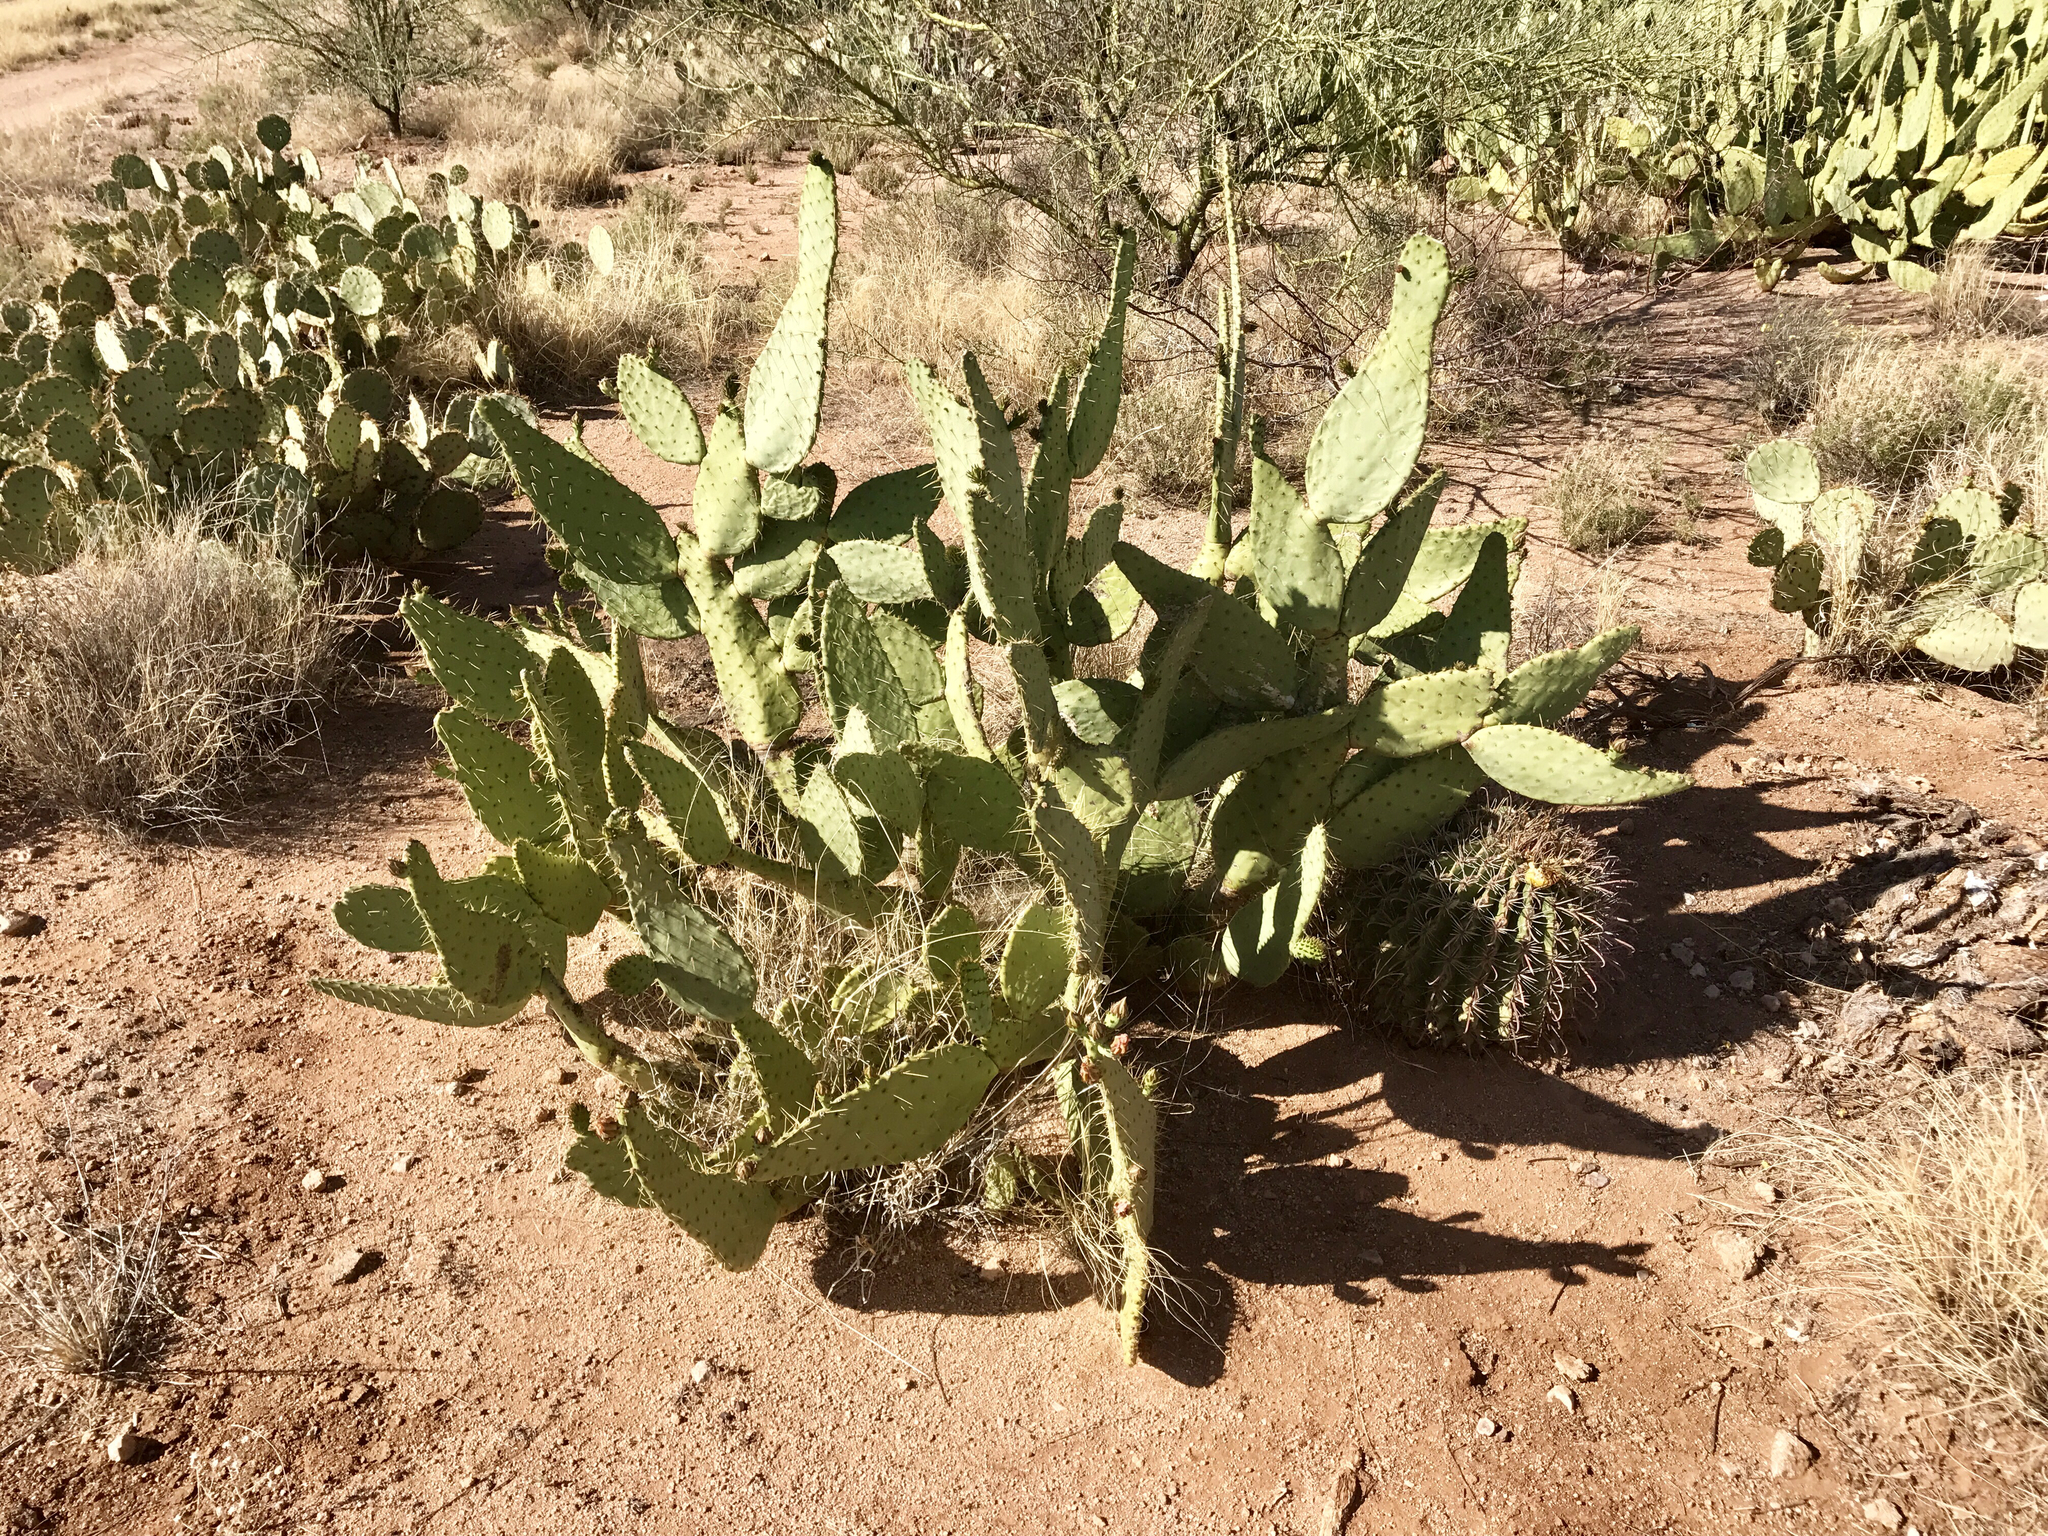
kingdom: Plantae
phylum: Tracheophyta
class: Magnoliopsida
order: Caryophyllales
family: Cactaceae
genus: Opuntia
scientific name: Opuntia engelmannii
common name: Cactus-apple
